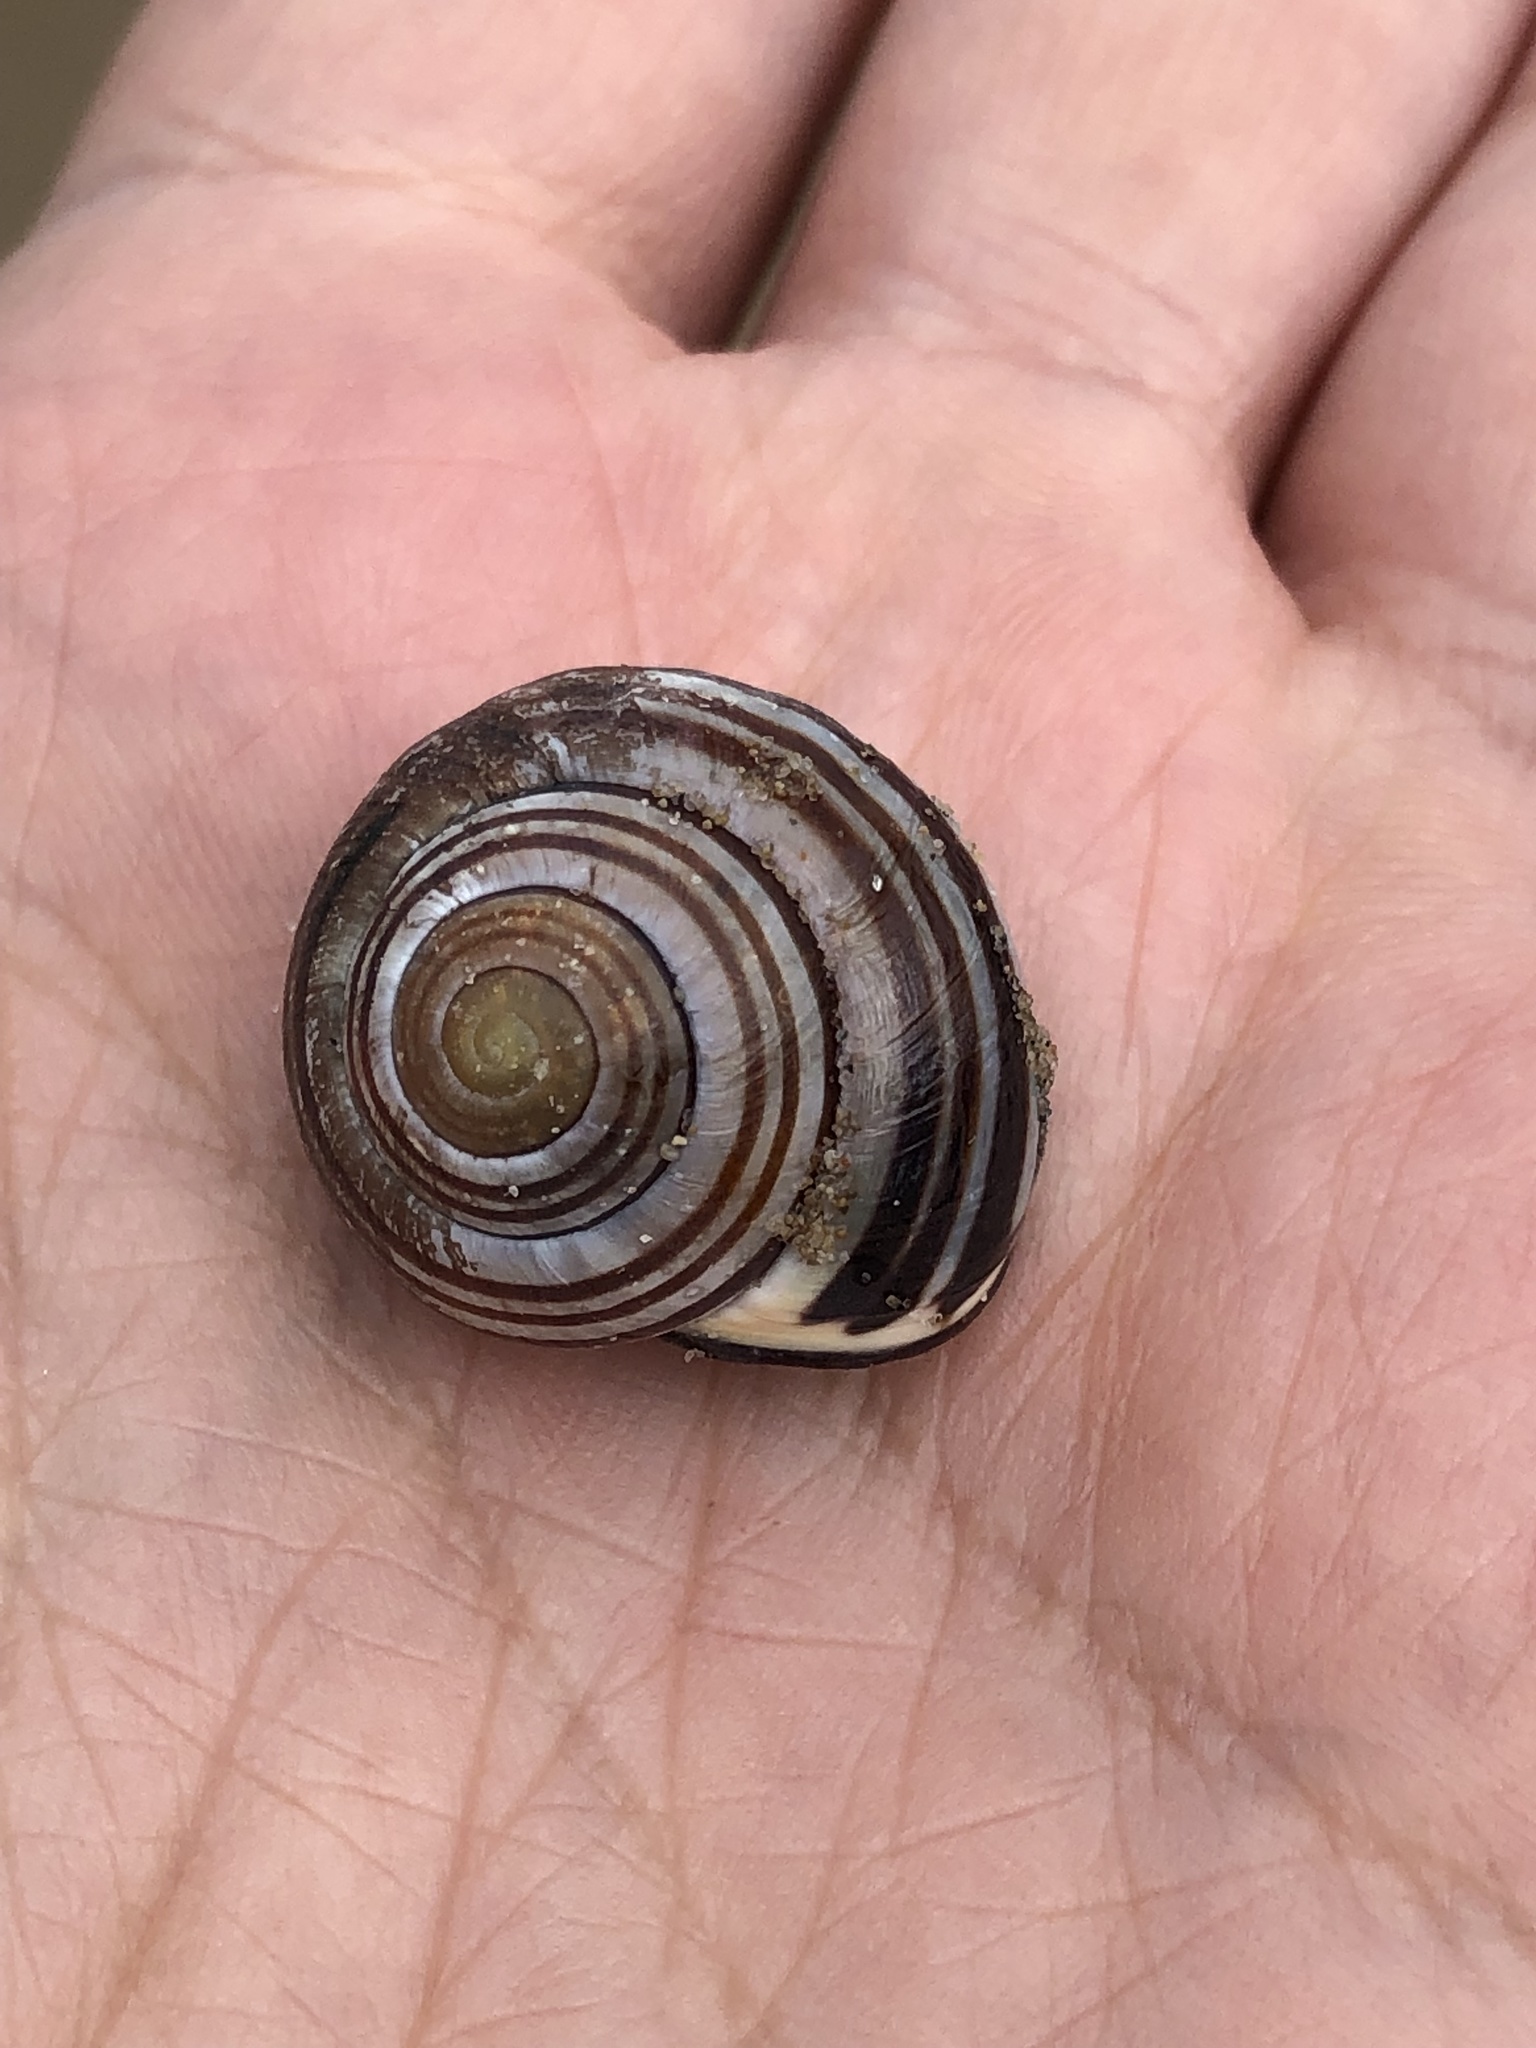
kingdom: Animalia
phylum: Mollusca
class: Gastropoda
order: Stylommatophora
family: Helicidae
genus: Cepaea
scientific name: Cepaea nemoralis
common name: Grovesnail
